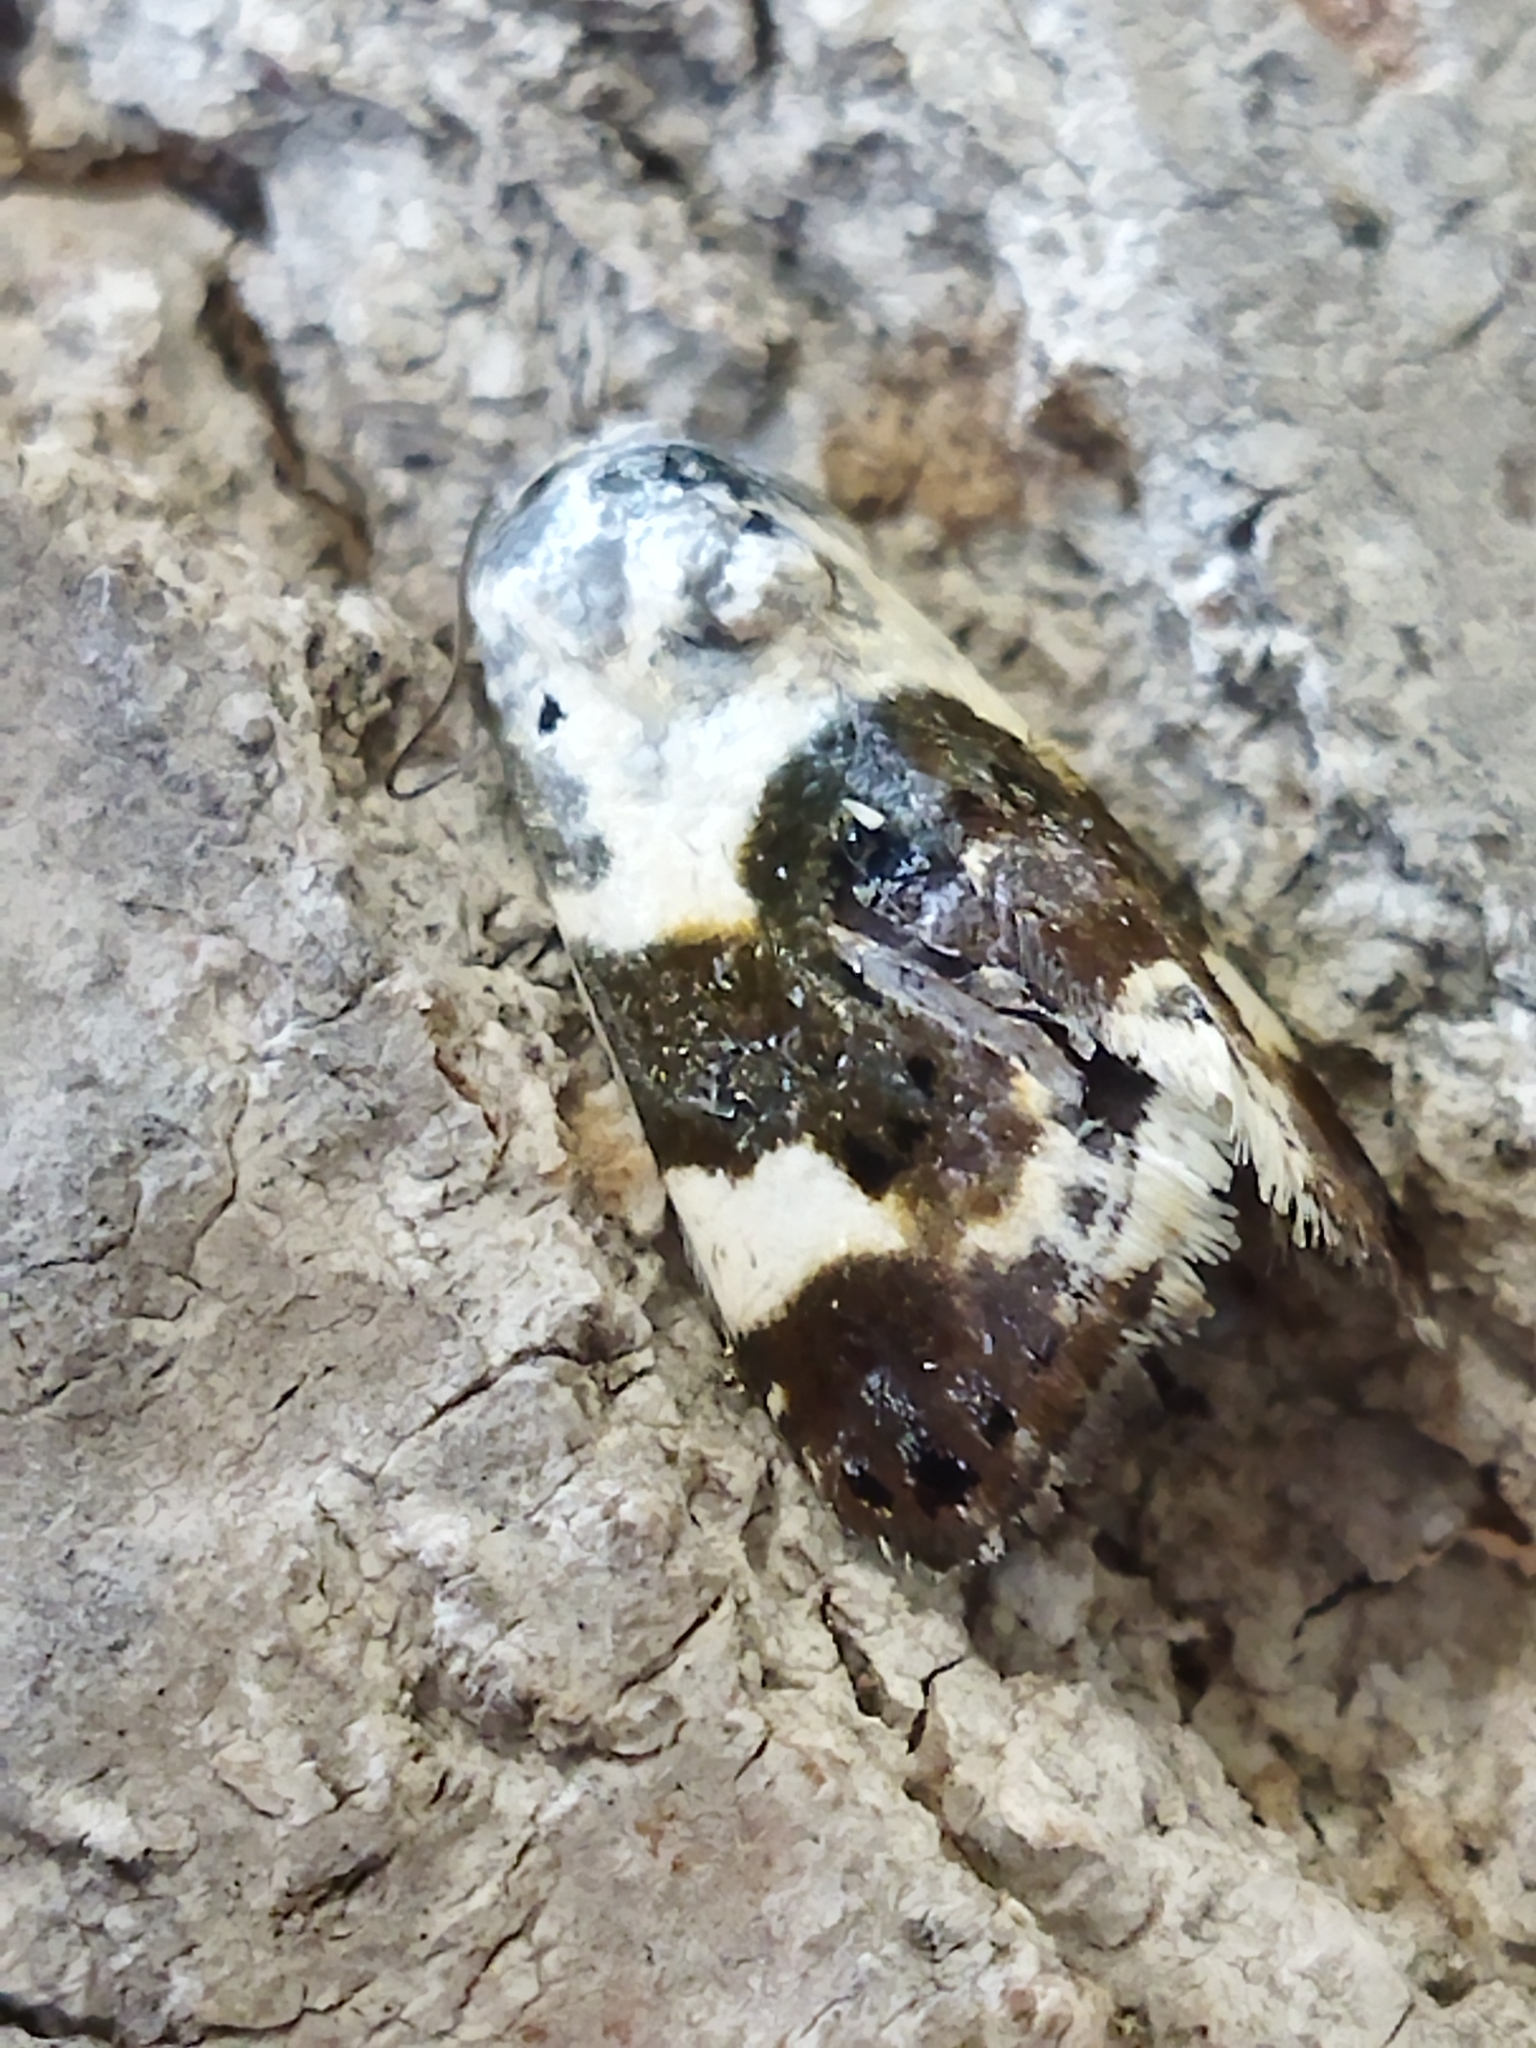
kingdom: Animalia
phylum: Arthropoda
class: Insecta
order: Lepidoptera
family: Noctuidae
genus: Acontia
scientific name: Acontia lucida
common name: Pale shoulder
